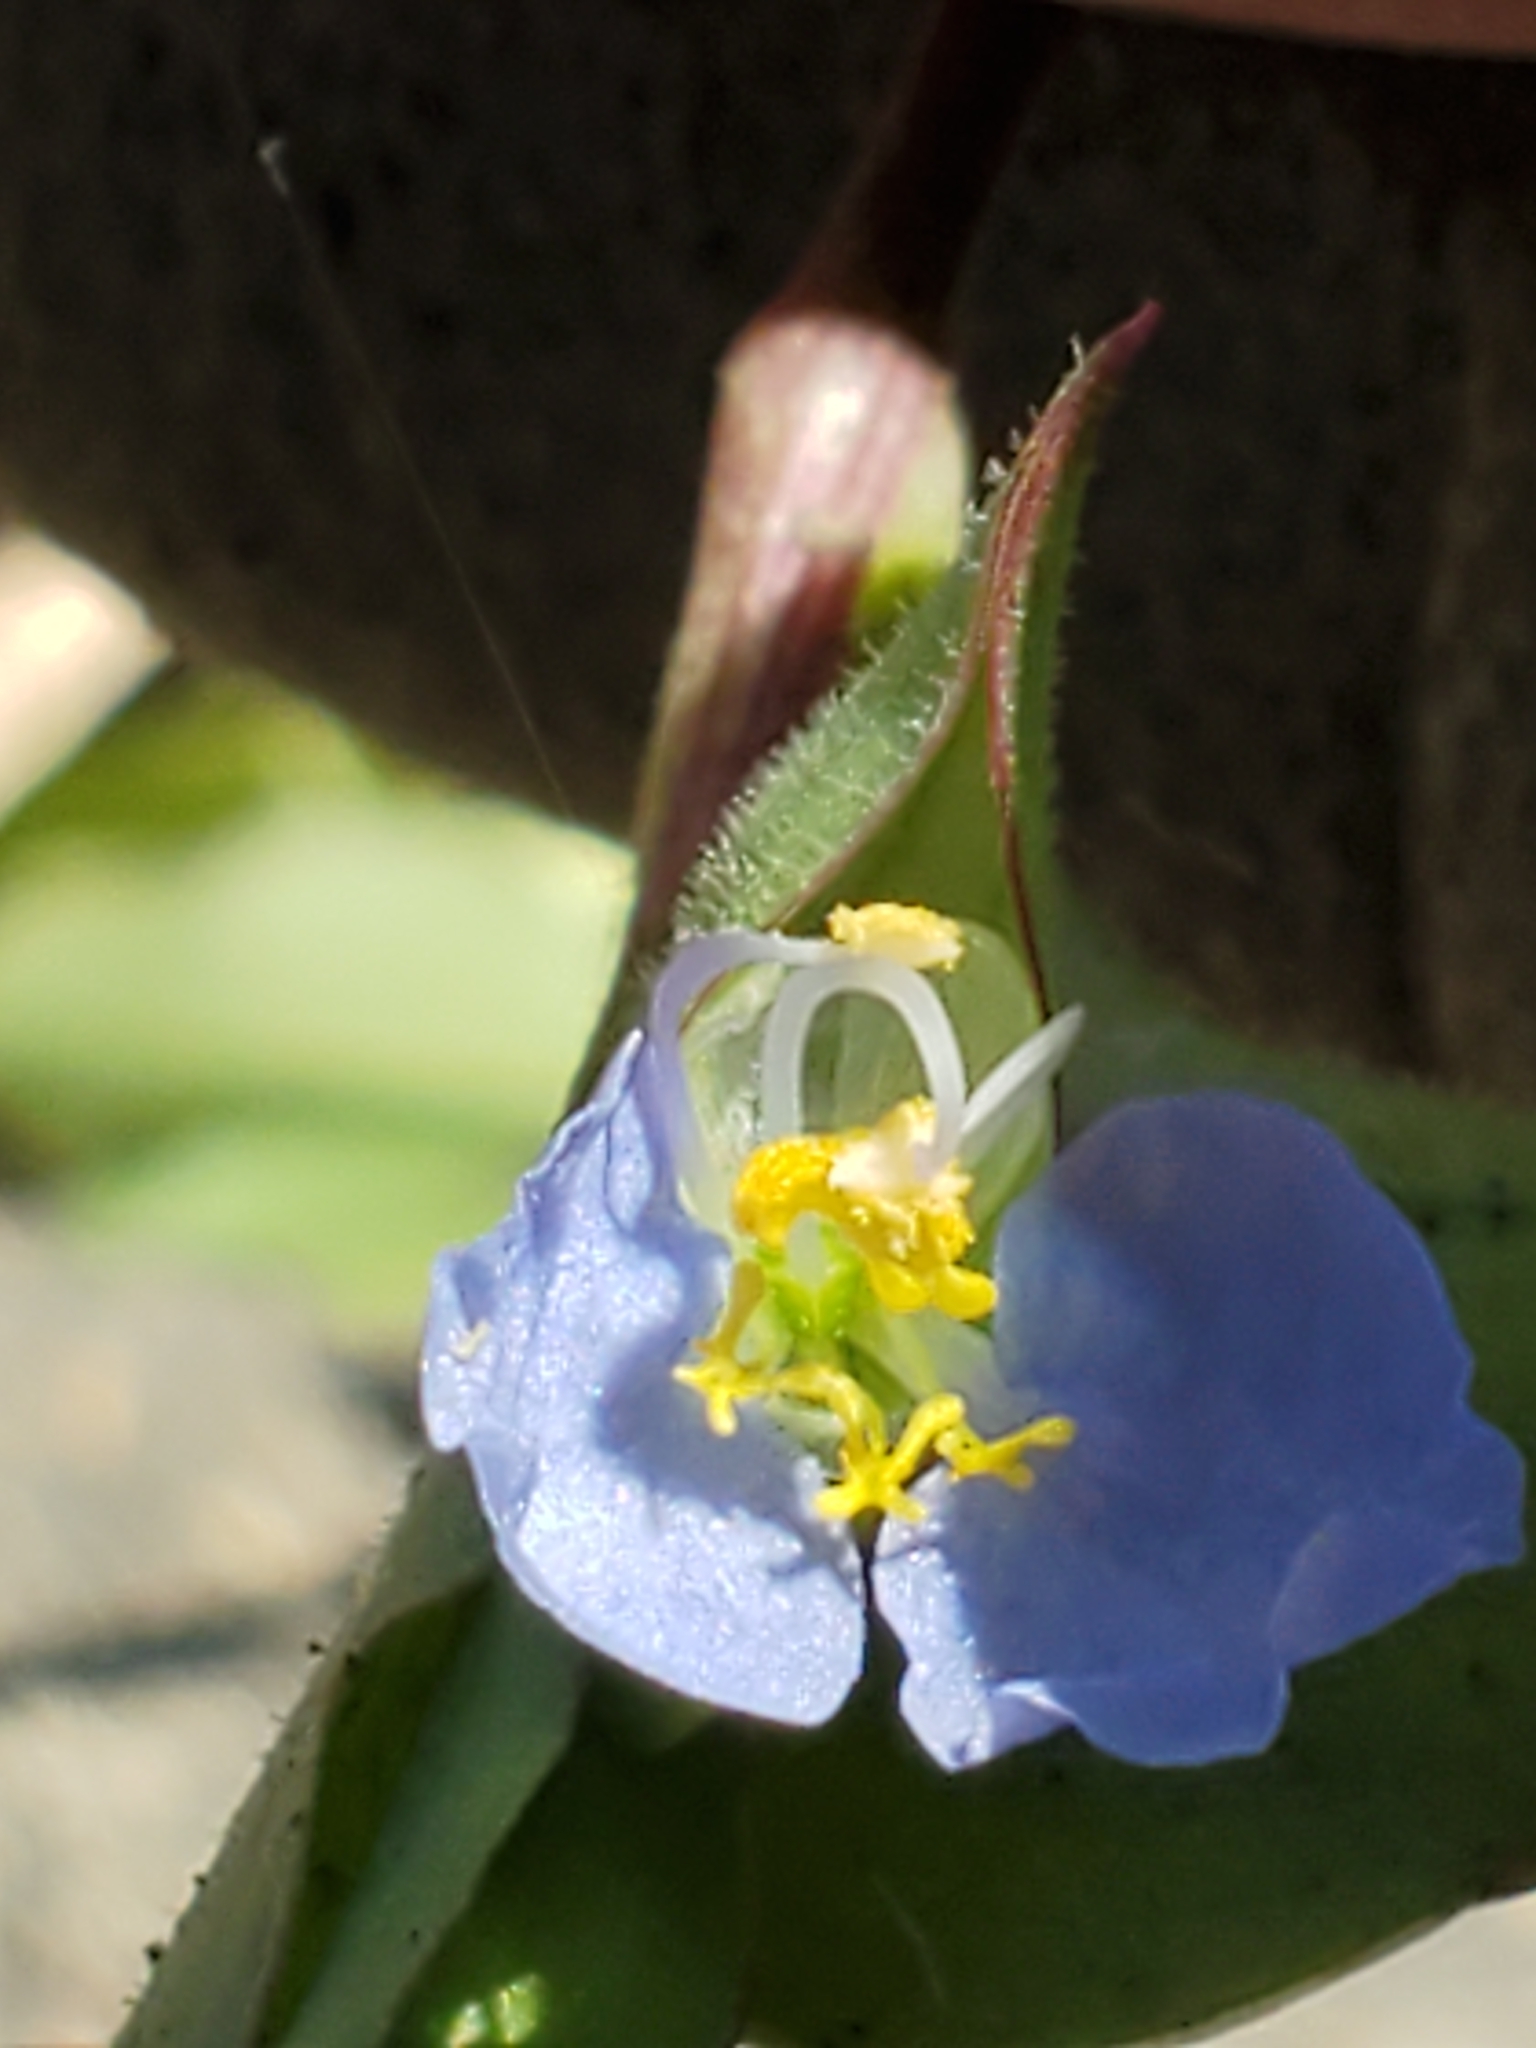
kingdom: Plantae
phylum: Tracheophyta
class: Liliopsida
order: Commelinales
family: Commelinaceae
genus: Commelina
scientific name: Commelina erecta
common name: Blousel blommetjie
